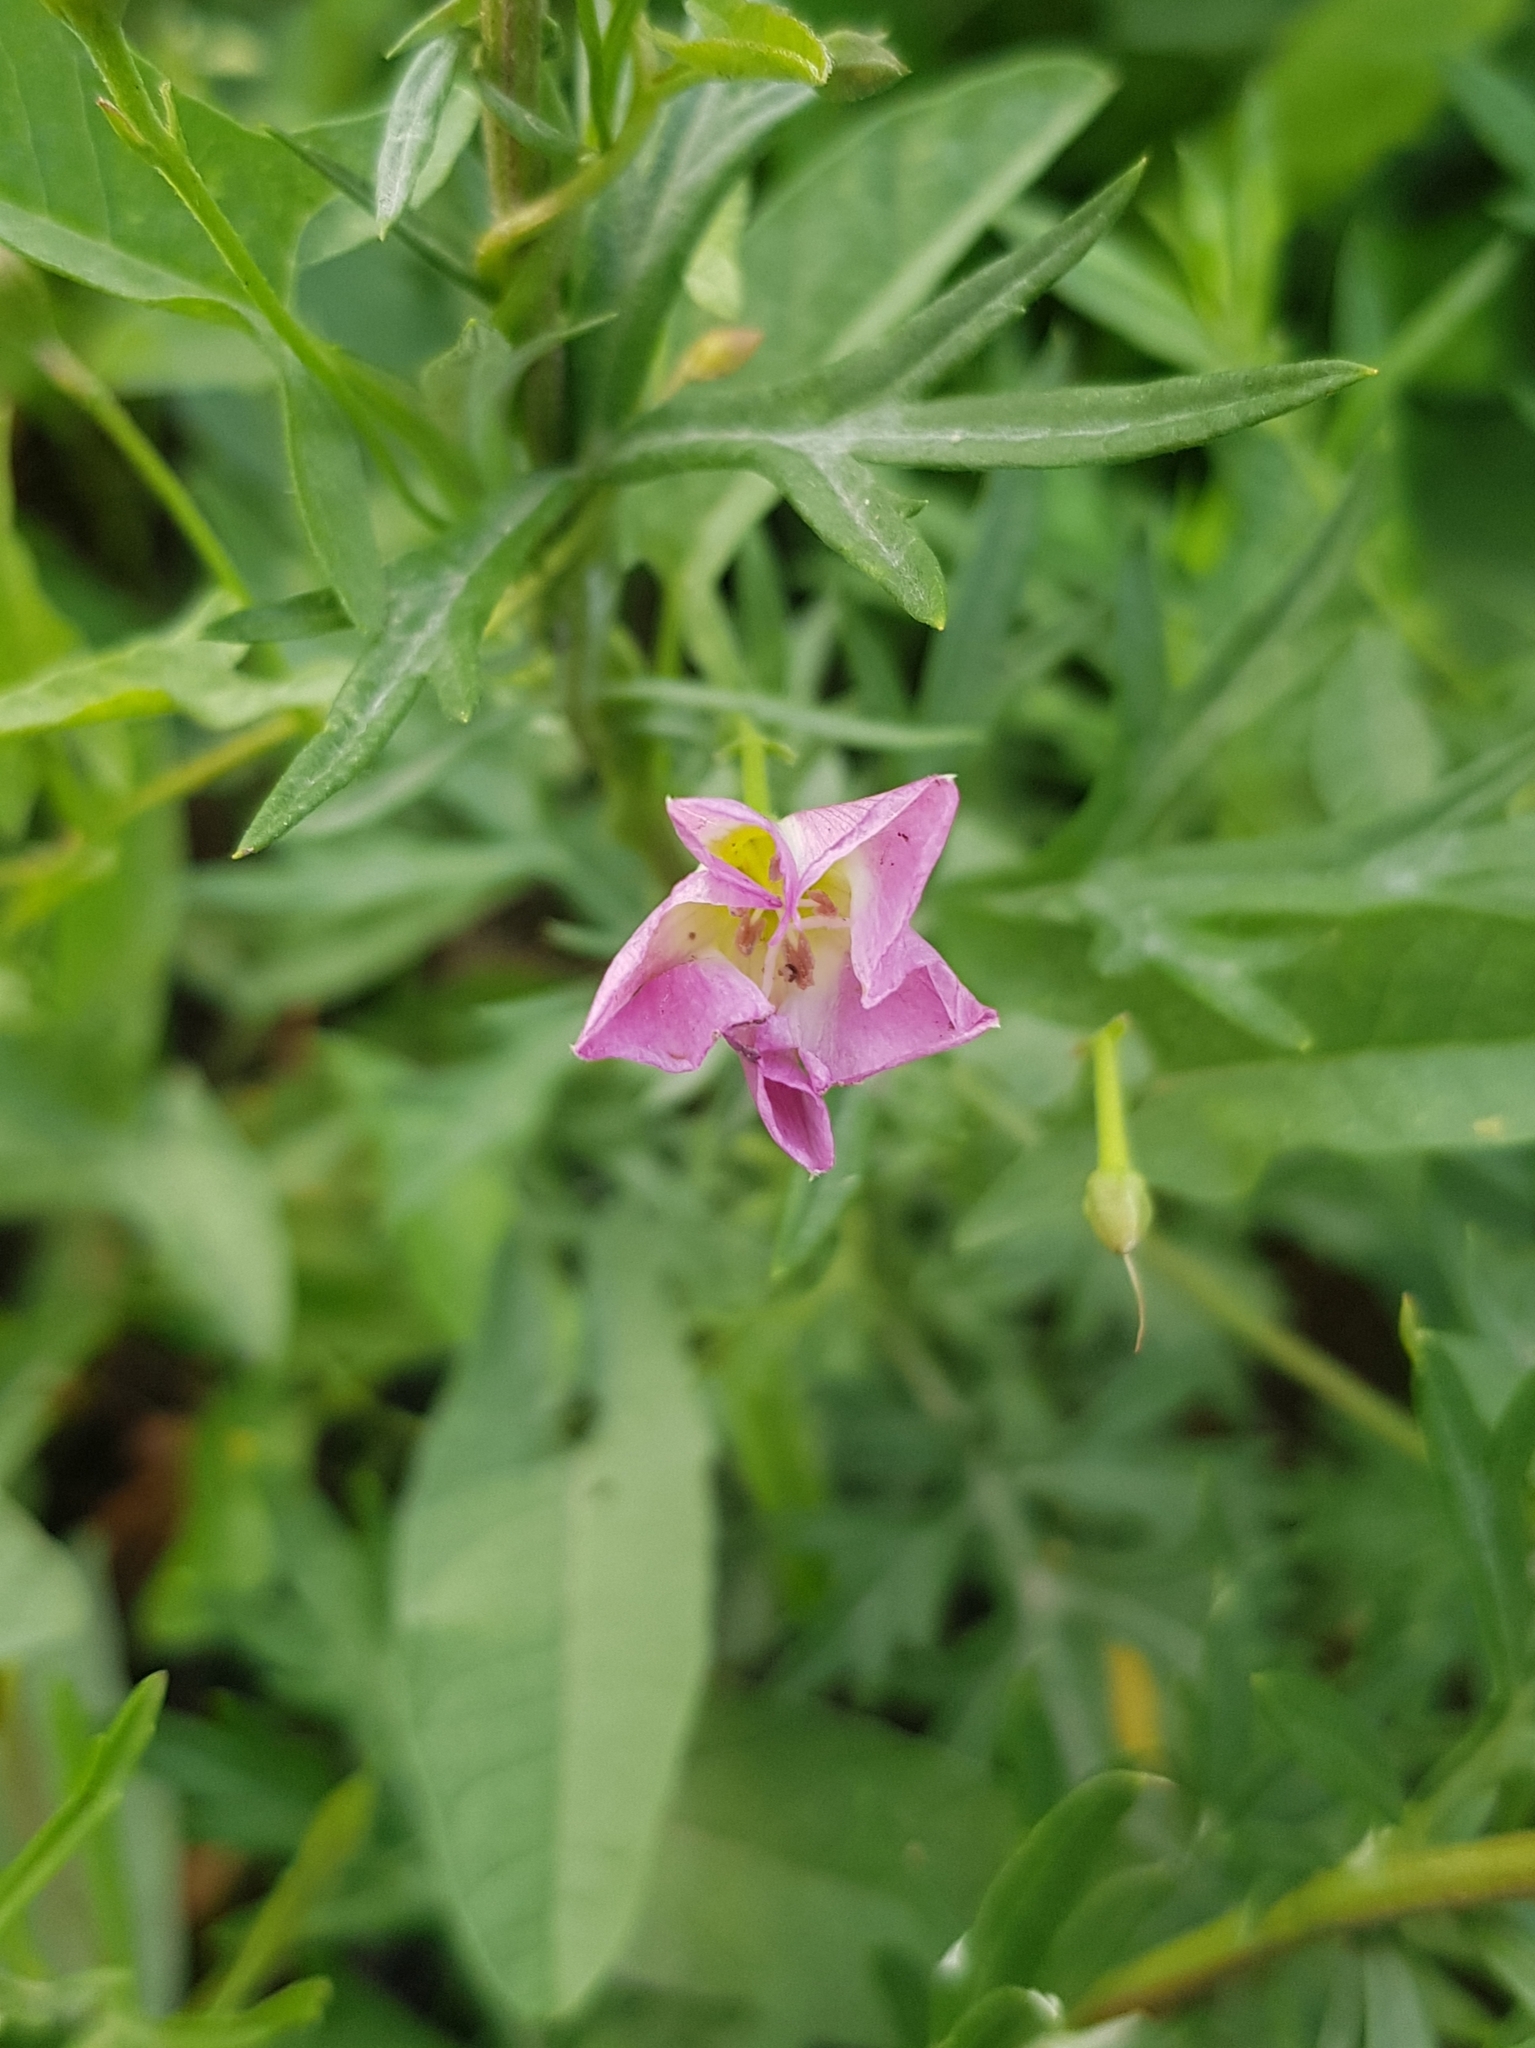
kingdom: Plantae
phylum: Tracheophyta
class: Magnoliopsida
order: Solanales
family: Convolvulaceae
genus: Convolvulus
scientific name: Convolvulus arvensis
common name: Field bindweed
